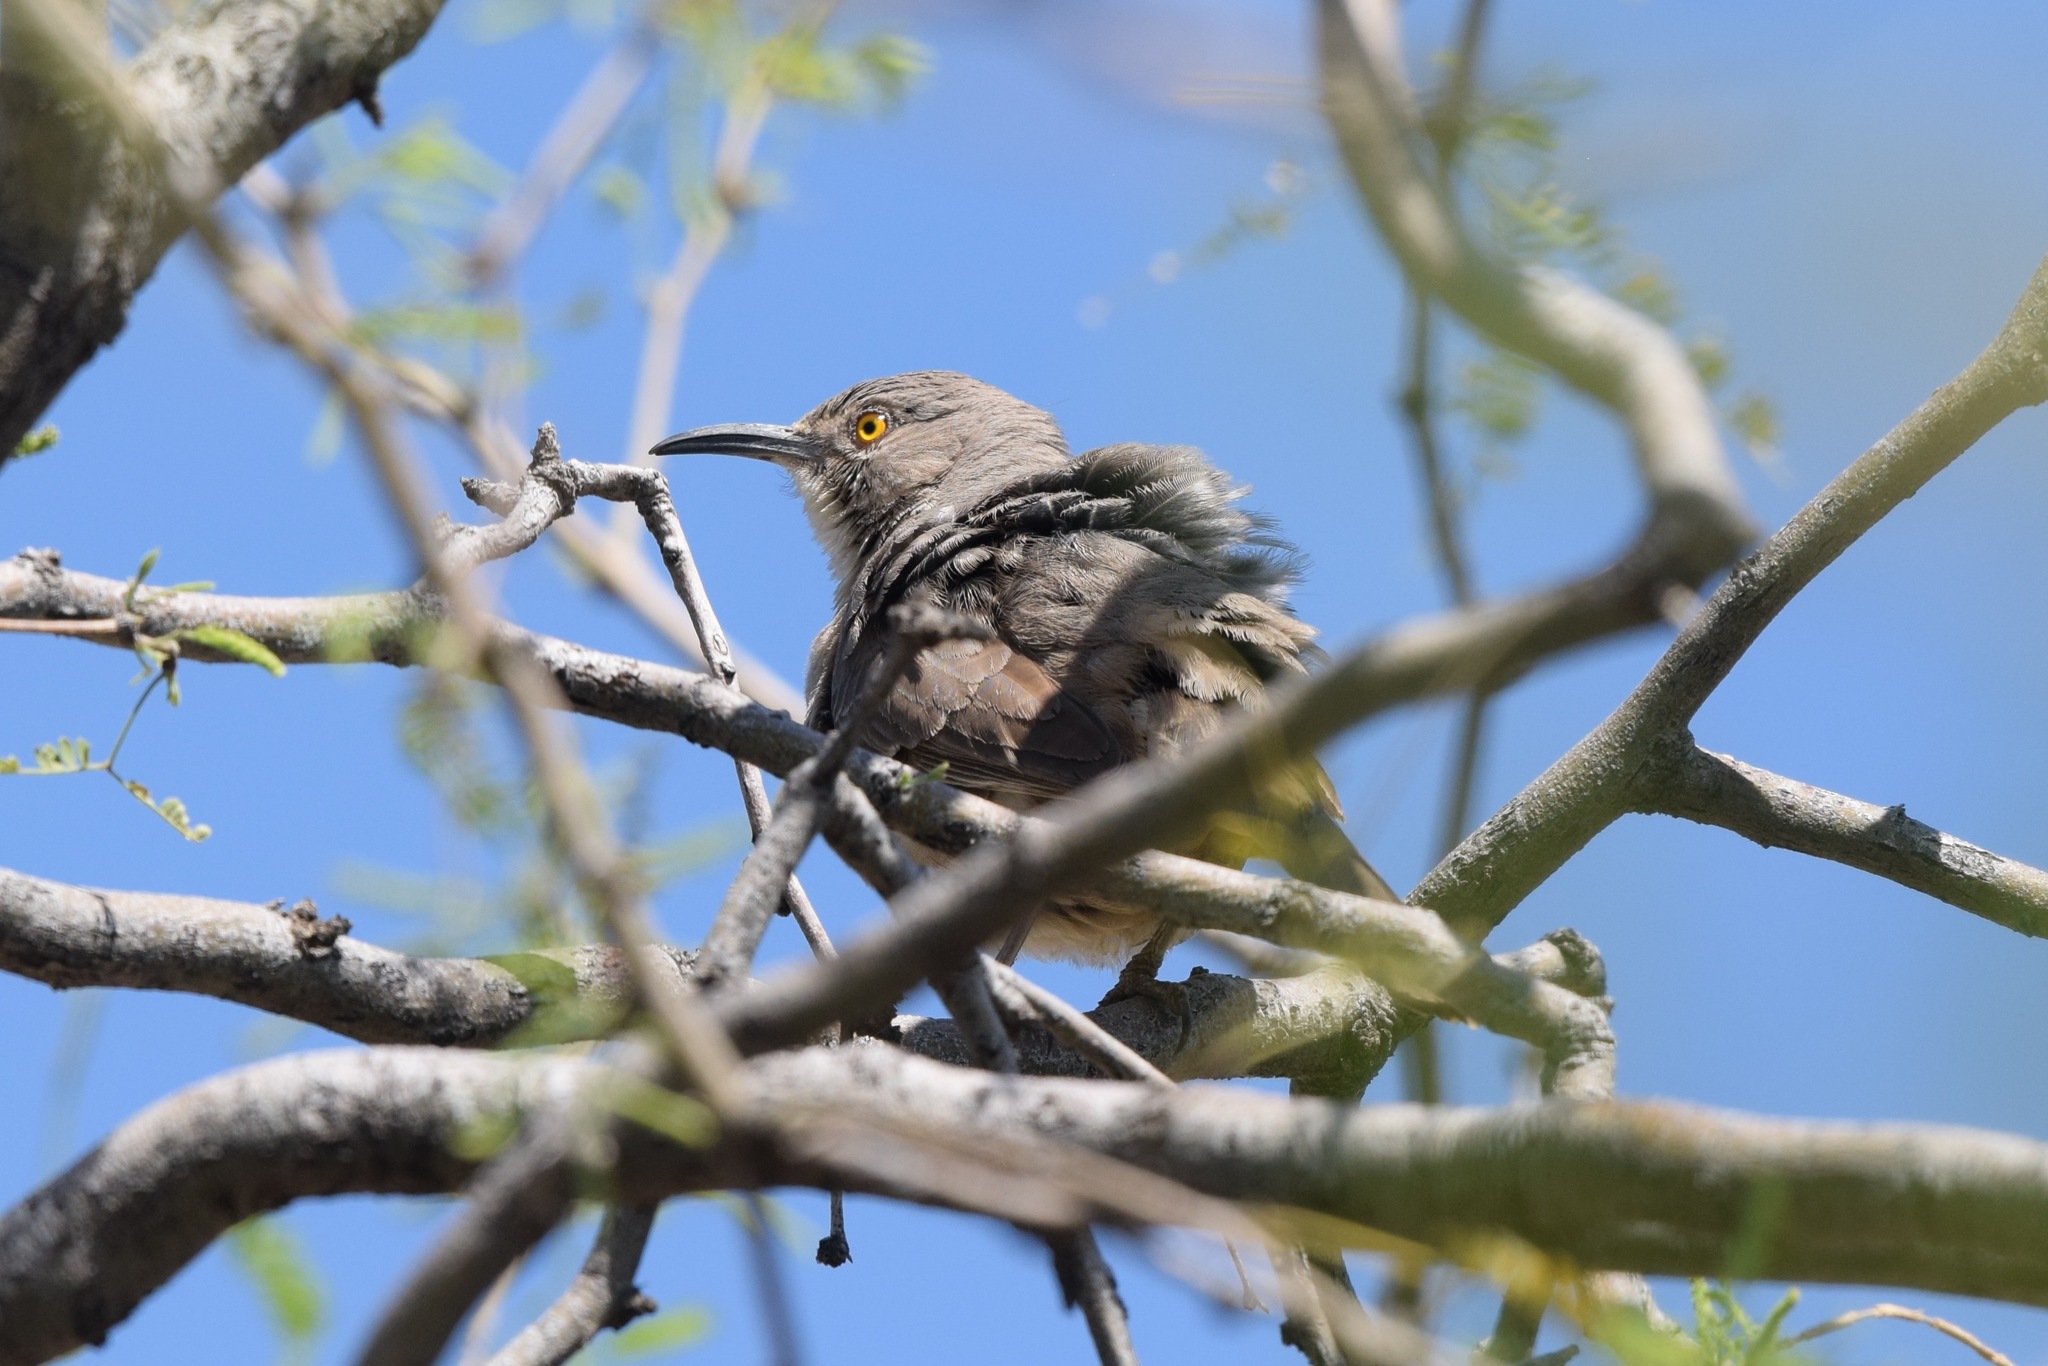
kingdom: Animalia
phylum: Chordata
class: Aves
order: Passeriformes
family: Mimidae
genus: Toxostoma
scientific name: Toxostoma curvirostre
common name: Curve-billed thrasher
